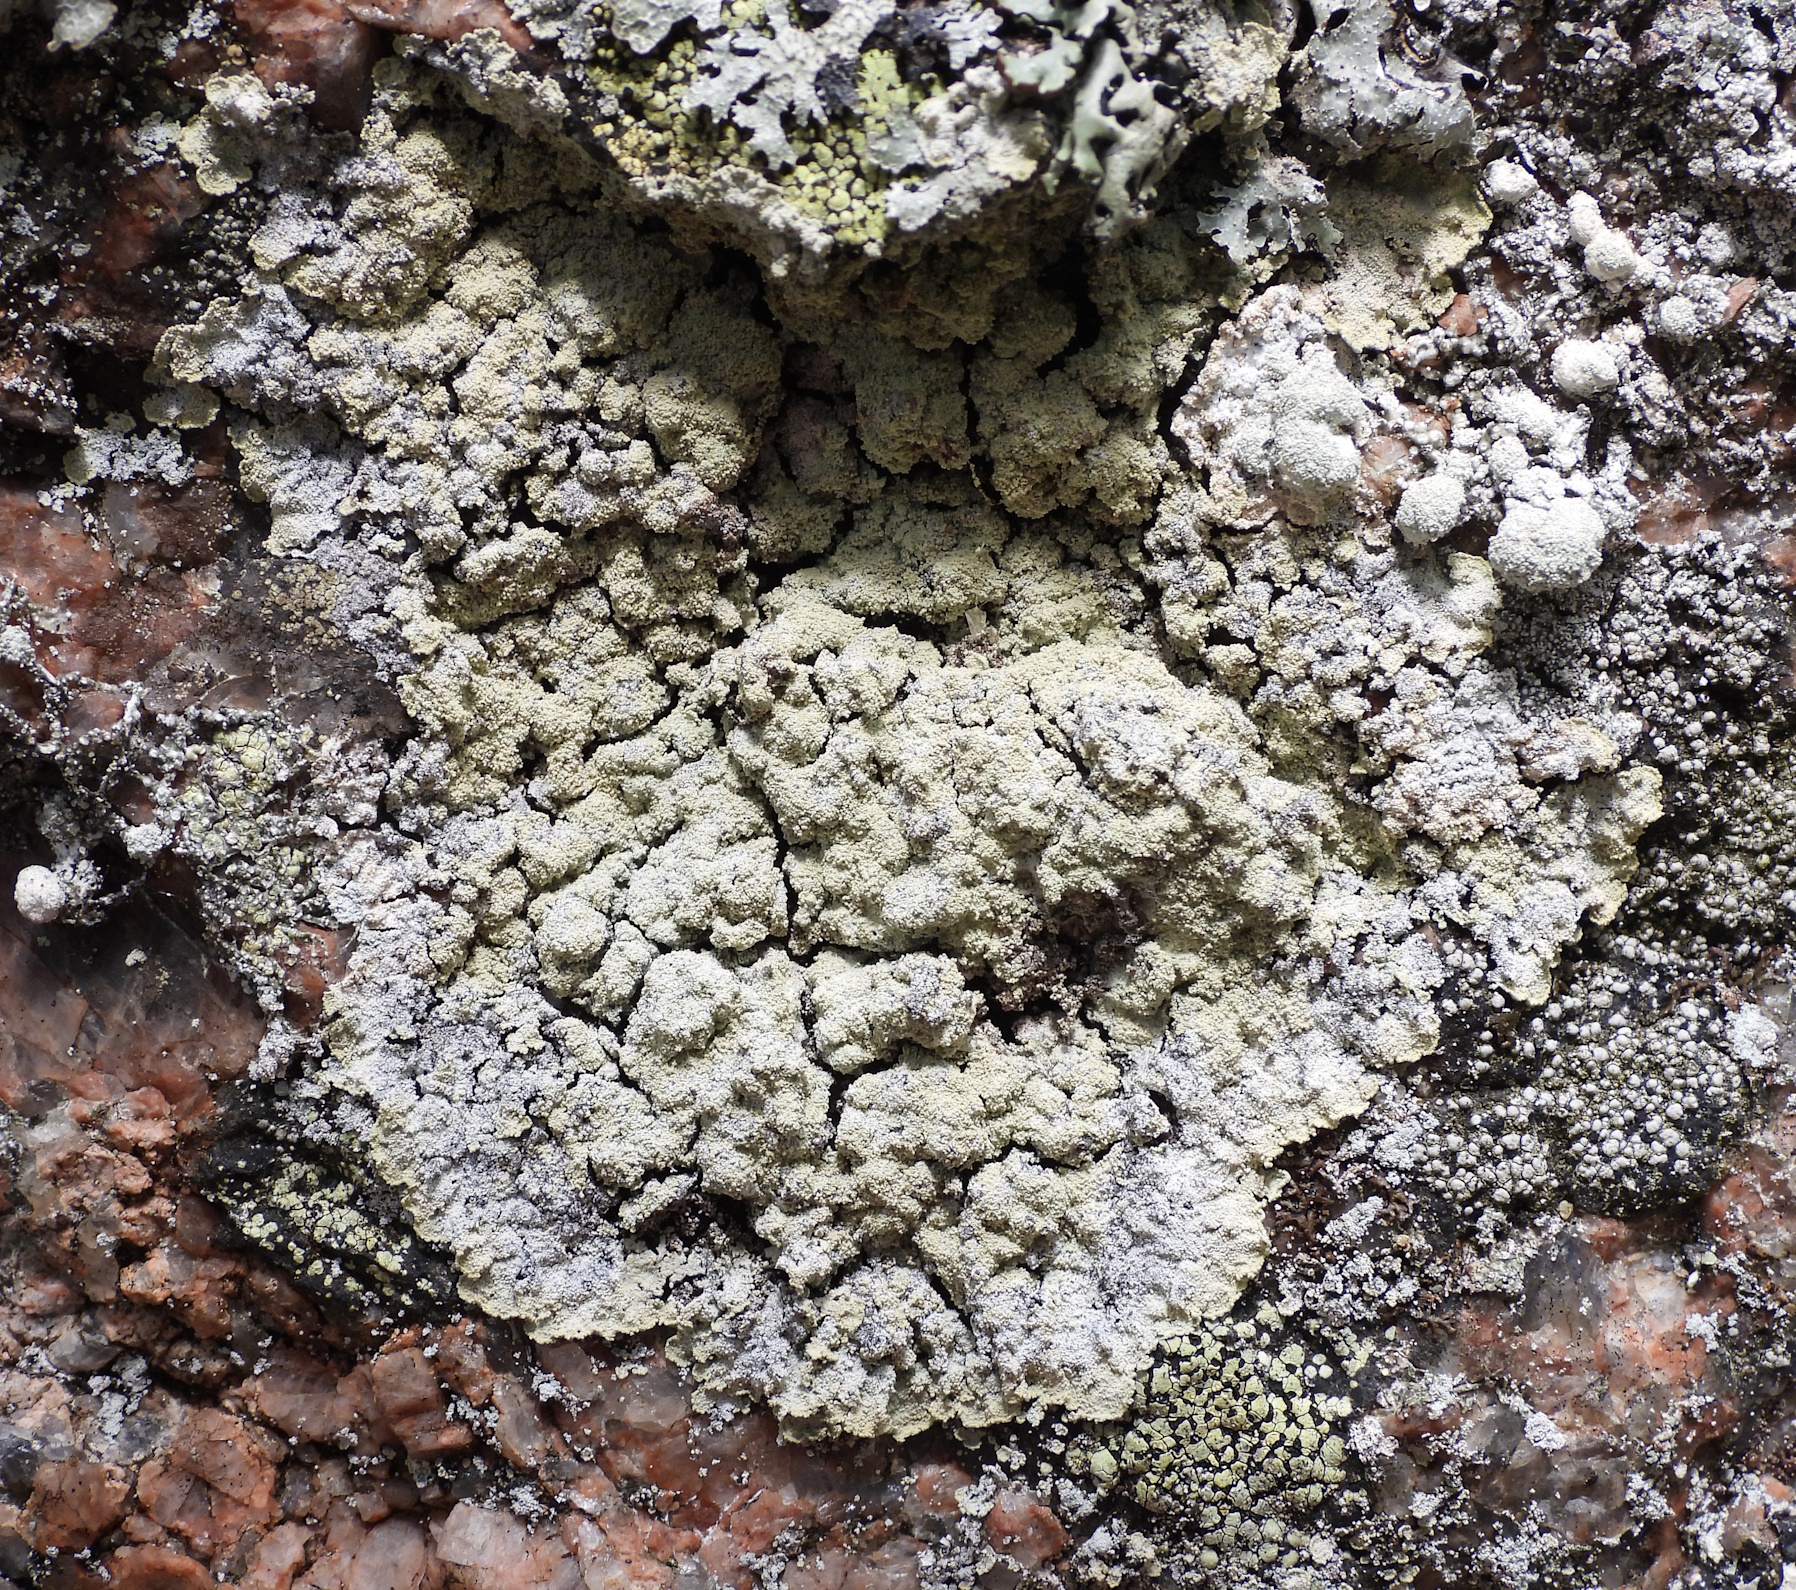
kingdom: Fungi
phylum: Ascomycota
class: Lecanoromycetes
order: Lecanorales
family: Stereocaulaceae
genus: Lepraria
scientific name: Lepraria membranacea
